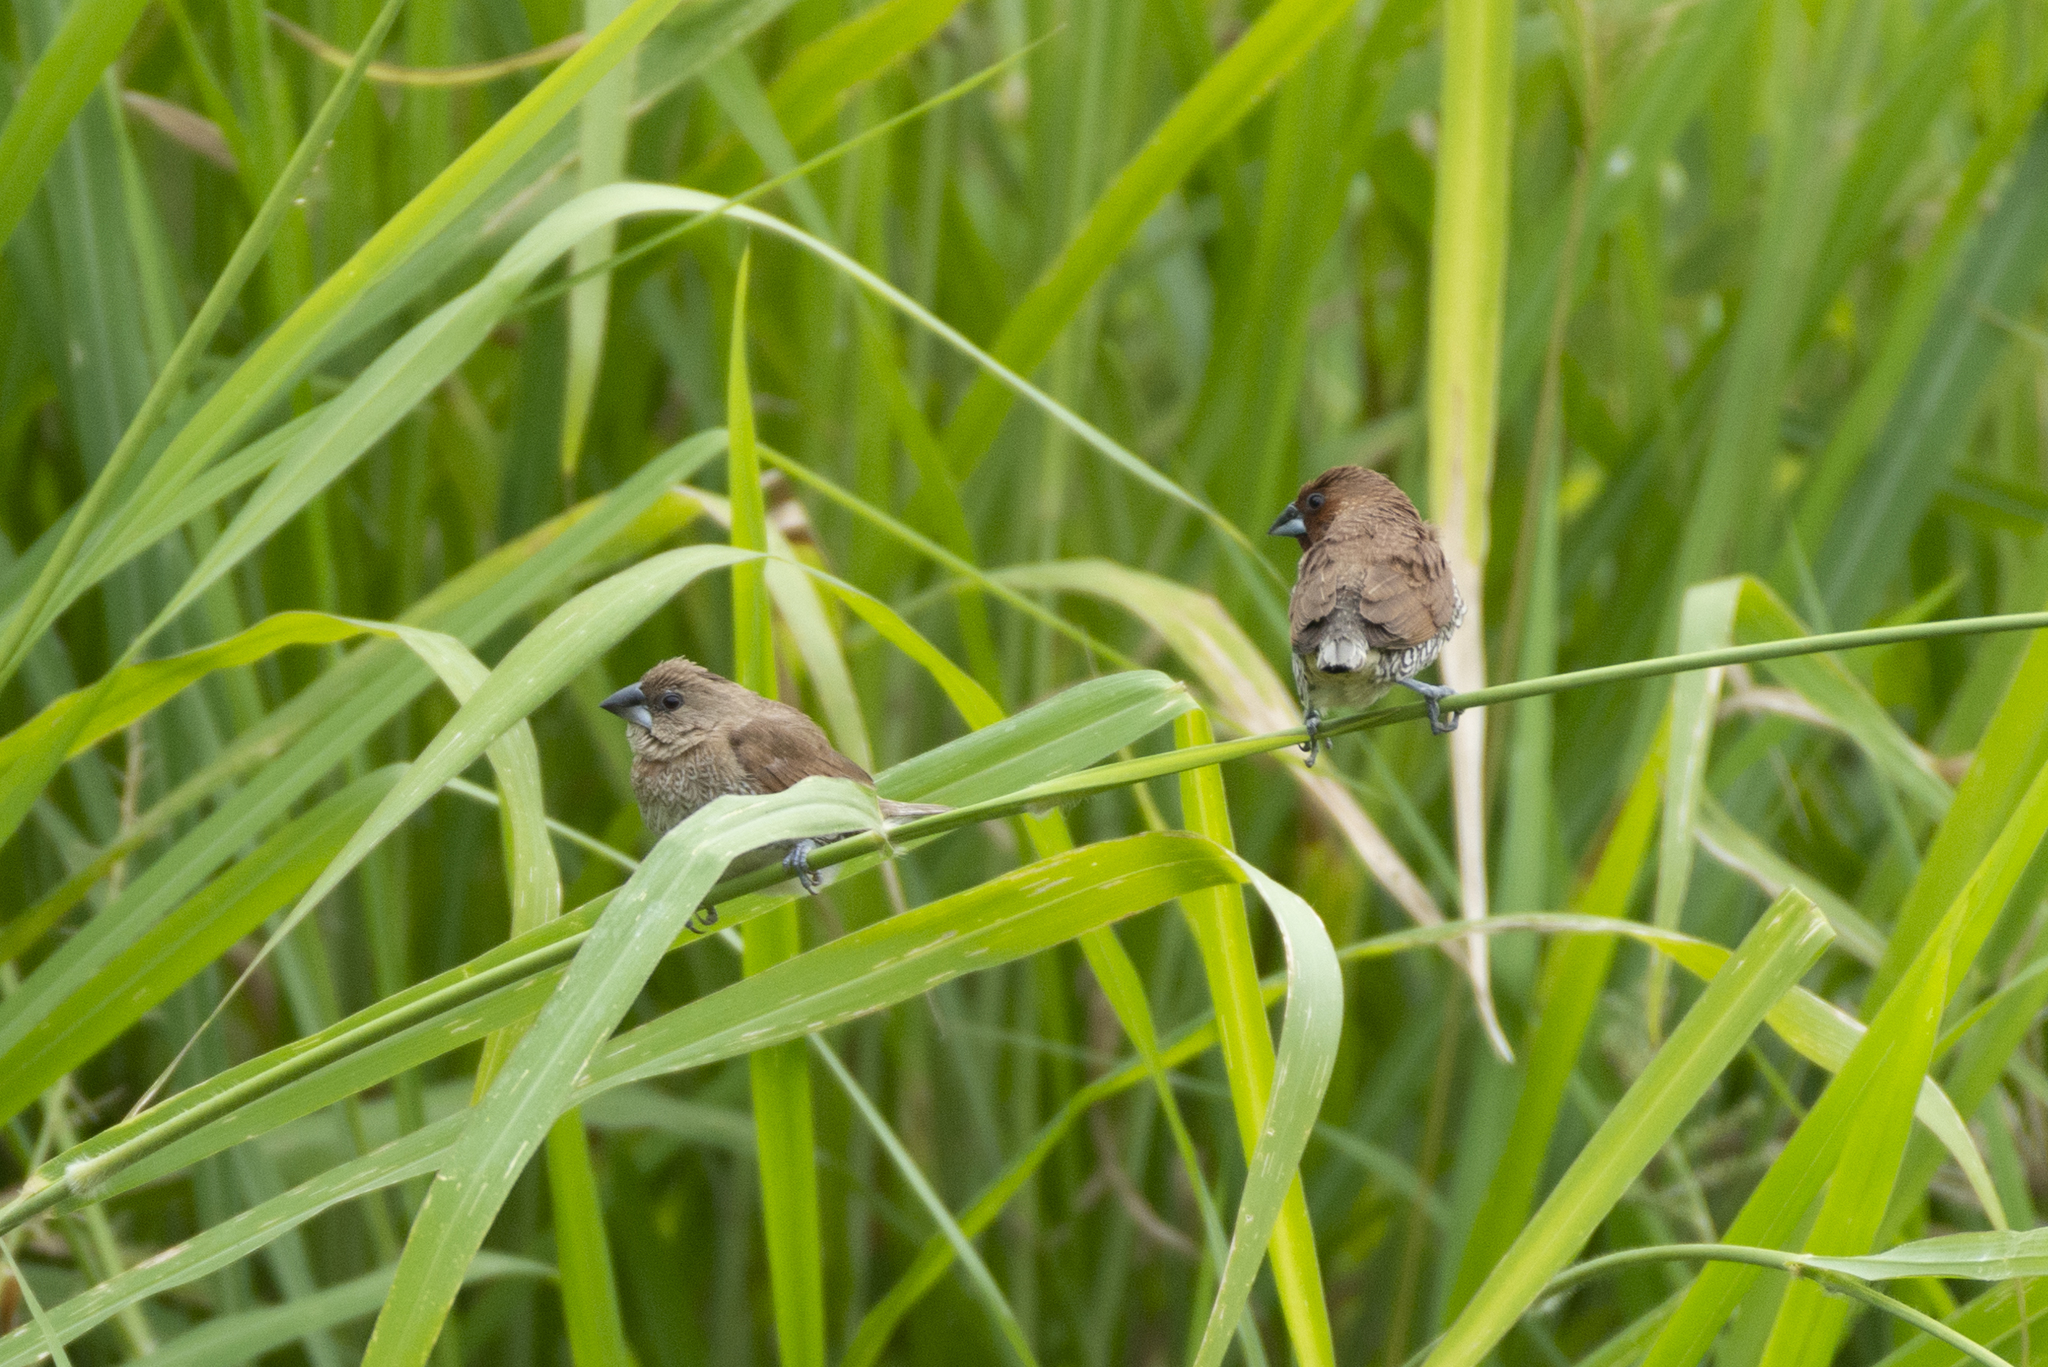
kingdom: Animalia
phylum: Chordata
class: Aves
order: Passeriformes
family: Estrildidae
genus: Lonchura
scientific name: Lonchura punctulata
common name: Scaly-breasted munia
